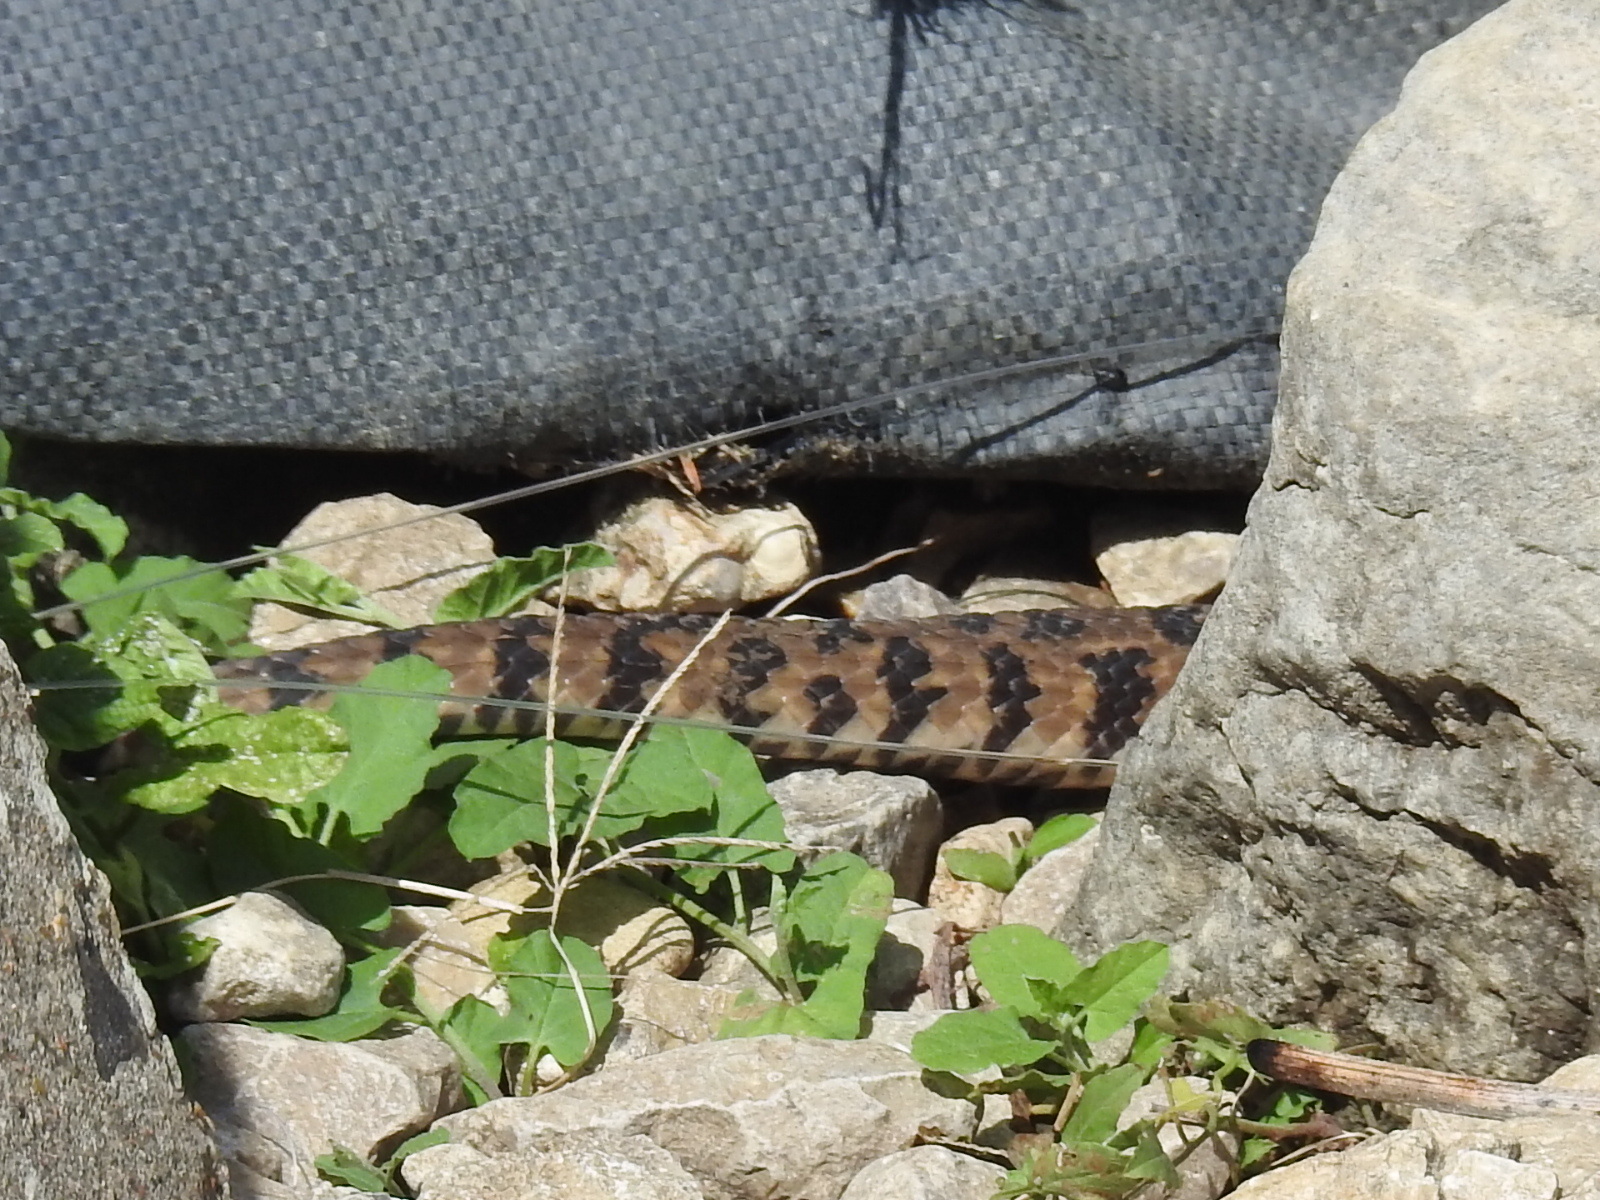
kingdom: Animalia
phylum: Chordata
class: Squamata
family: Colubridae
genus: Nerodia
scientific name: Nerodia rhombifer
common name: Diamondback water snake
